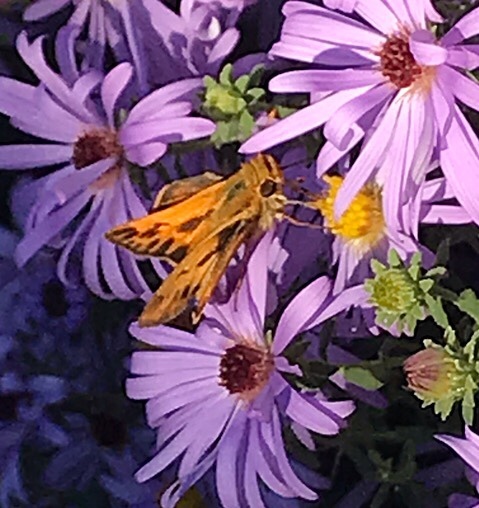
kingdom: Animalia
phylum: Arthropoda
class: Insecta
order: Lepidoptera
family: Hesperiidae
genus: Hylephila
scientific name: Hylephila phyleus
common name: Fiery skipper
